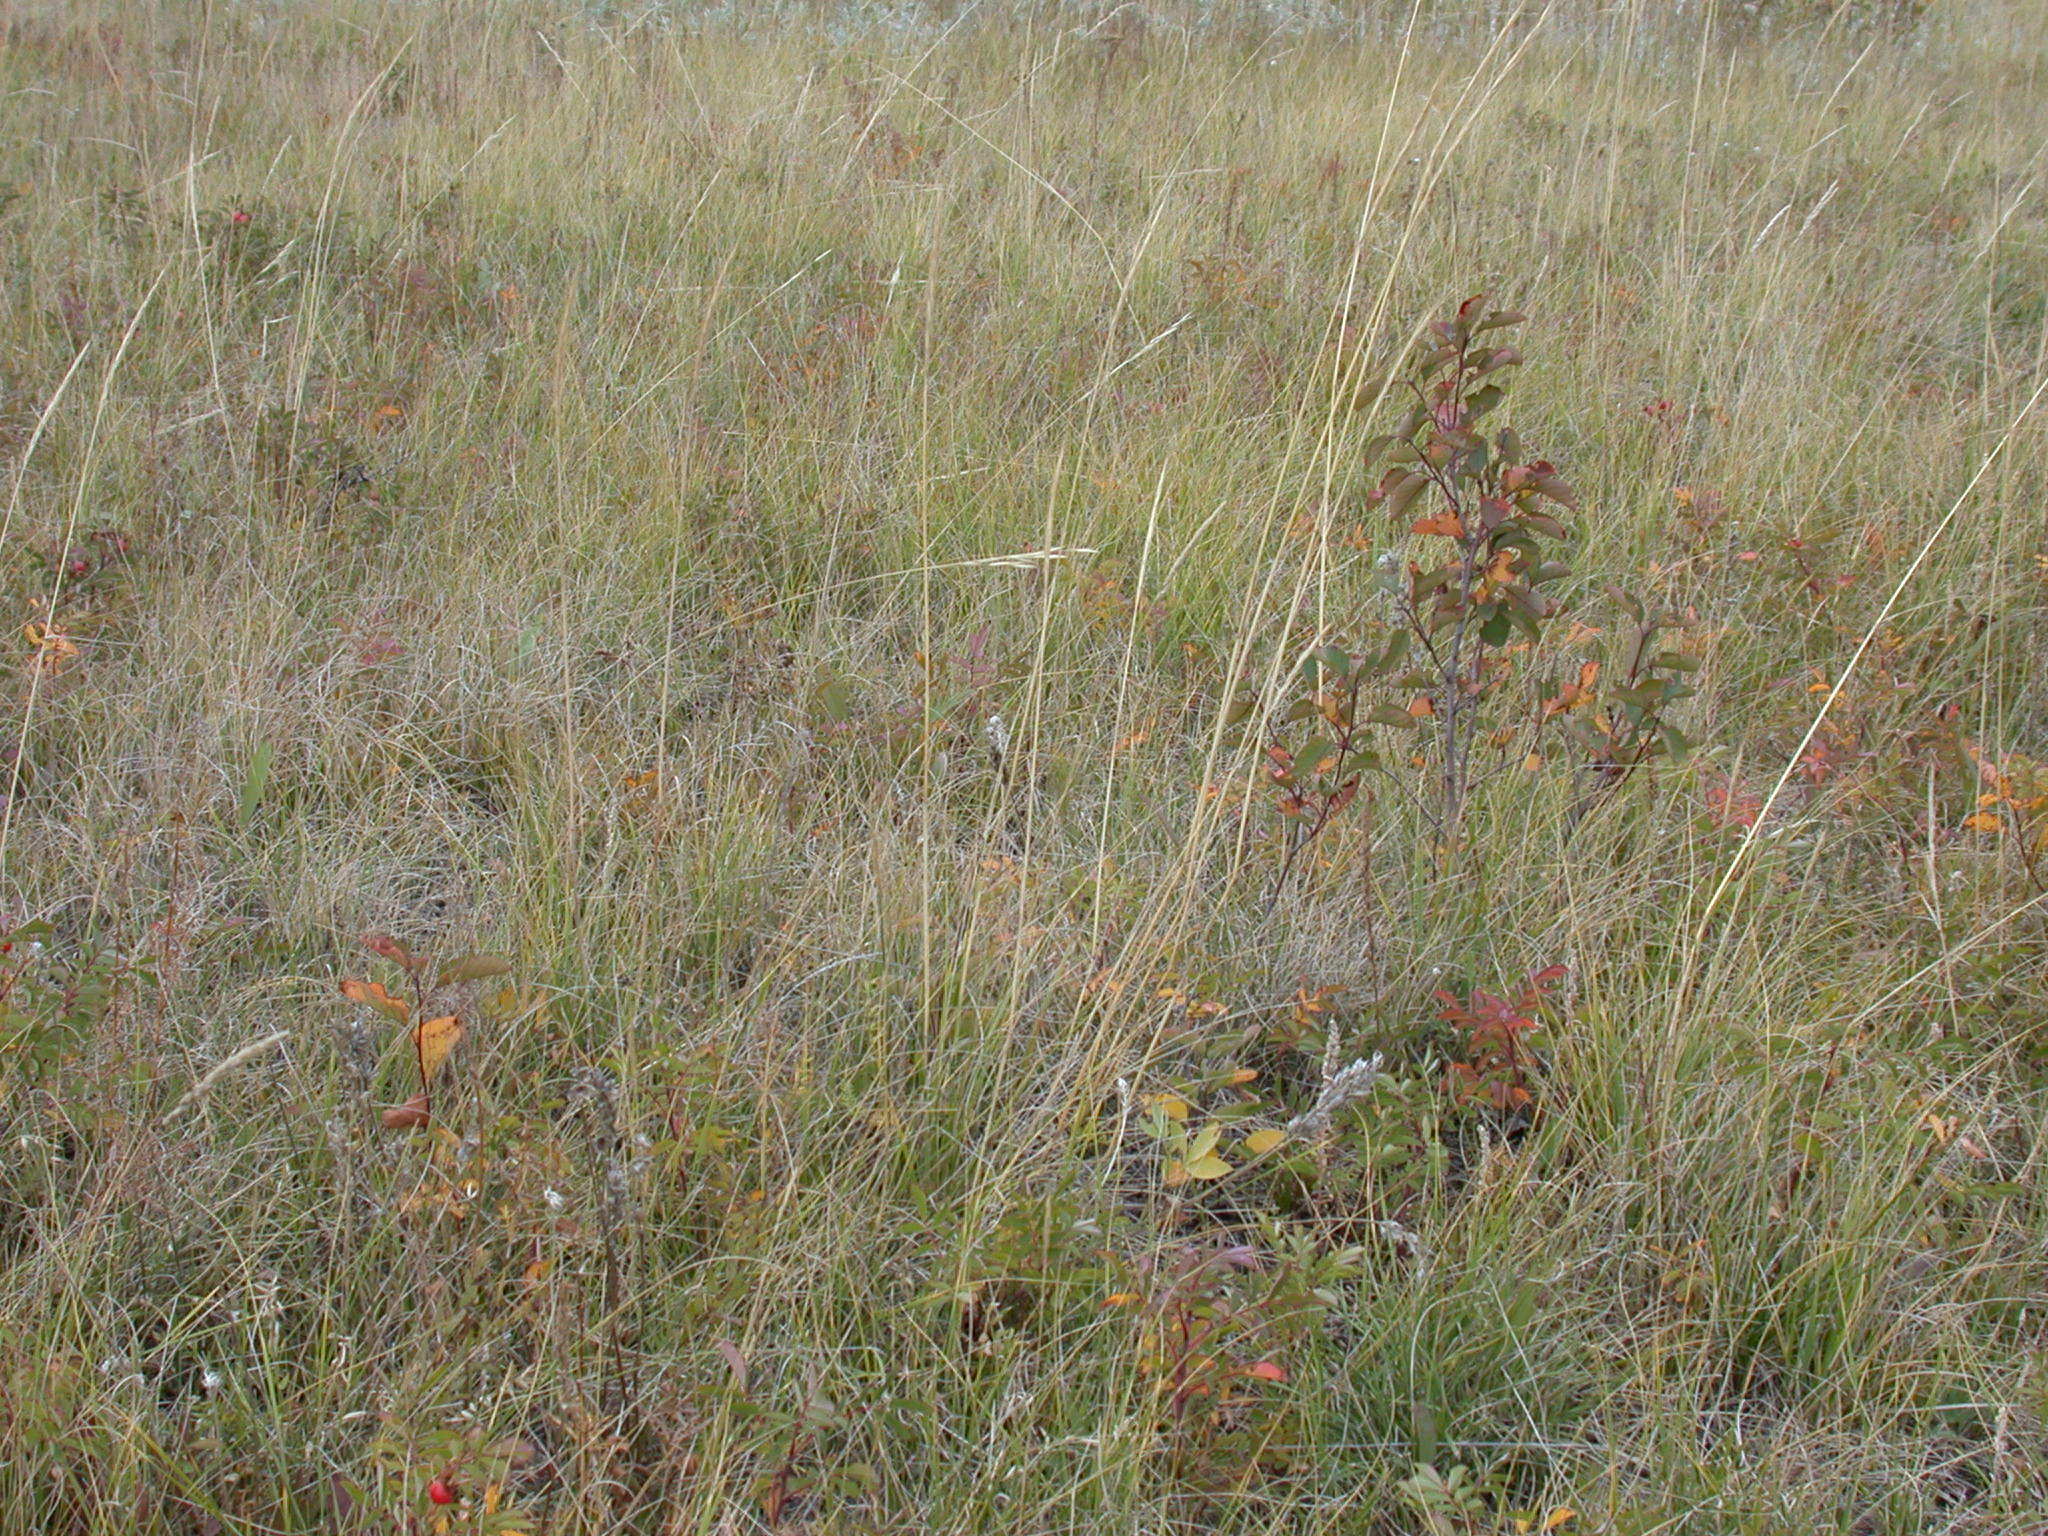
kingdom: Plantae
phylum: Tracheophyta
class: Magnoliopsida
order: Rosales
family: Rosaceae
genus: Rosa
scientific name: Rosa arkansana
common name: Prairie rose
